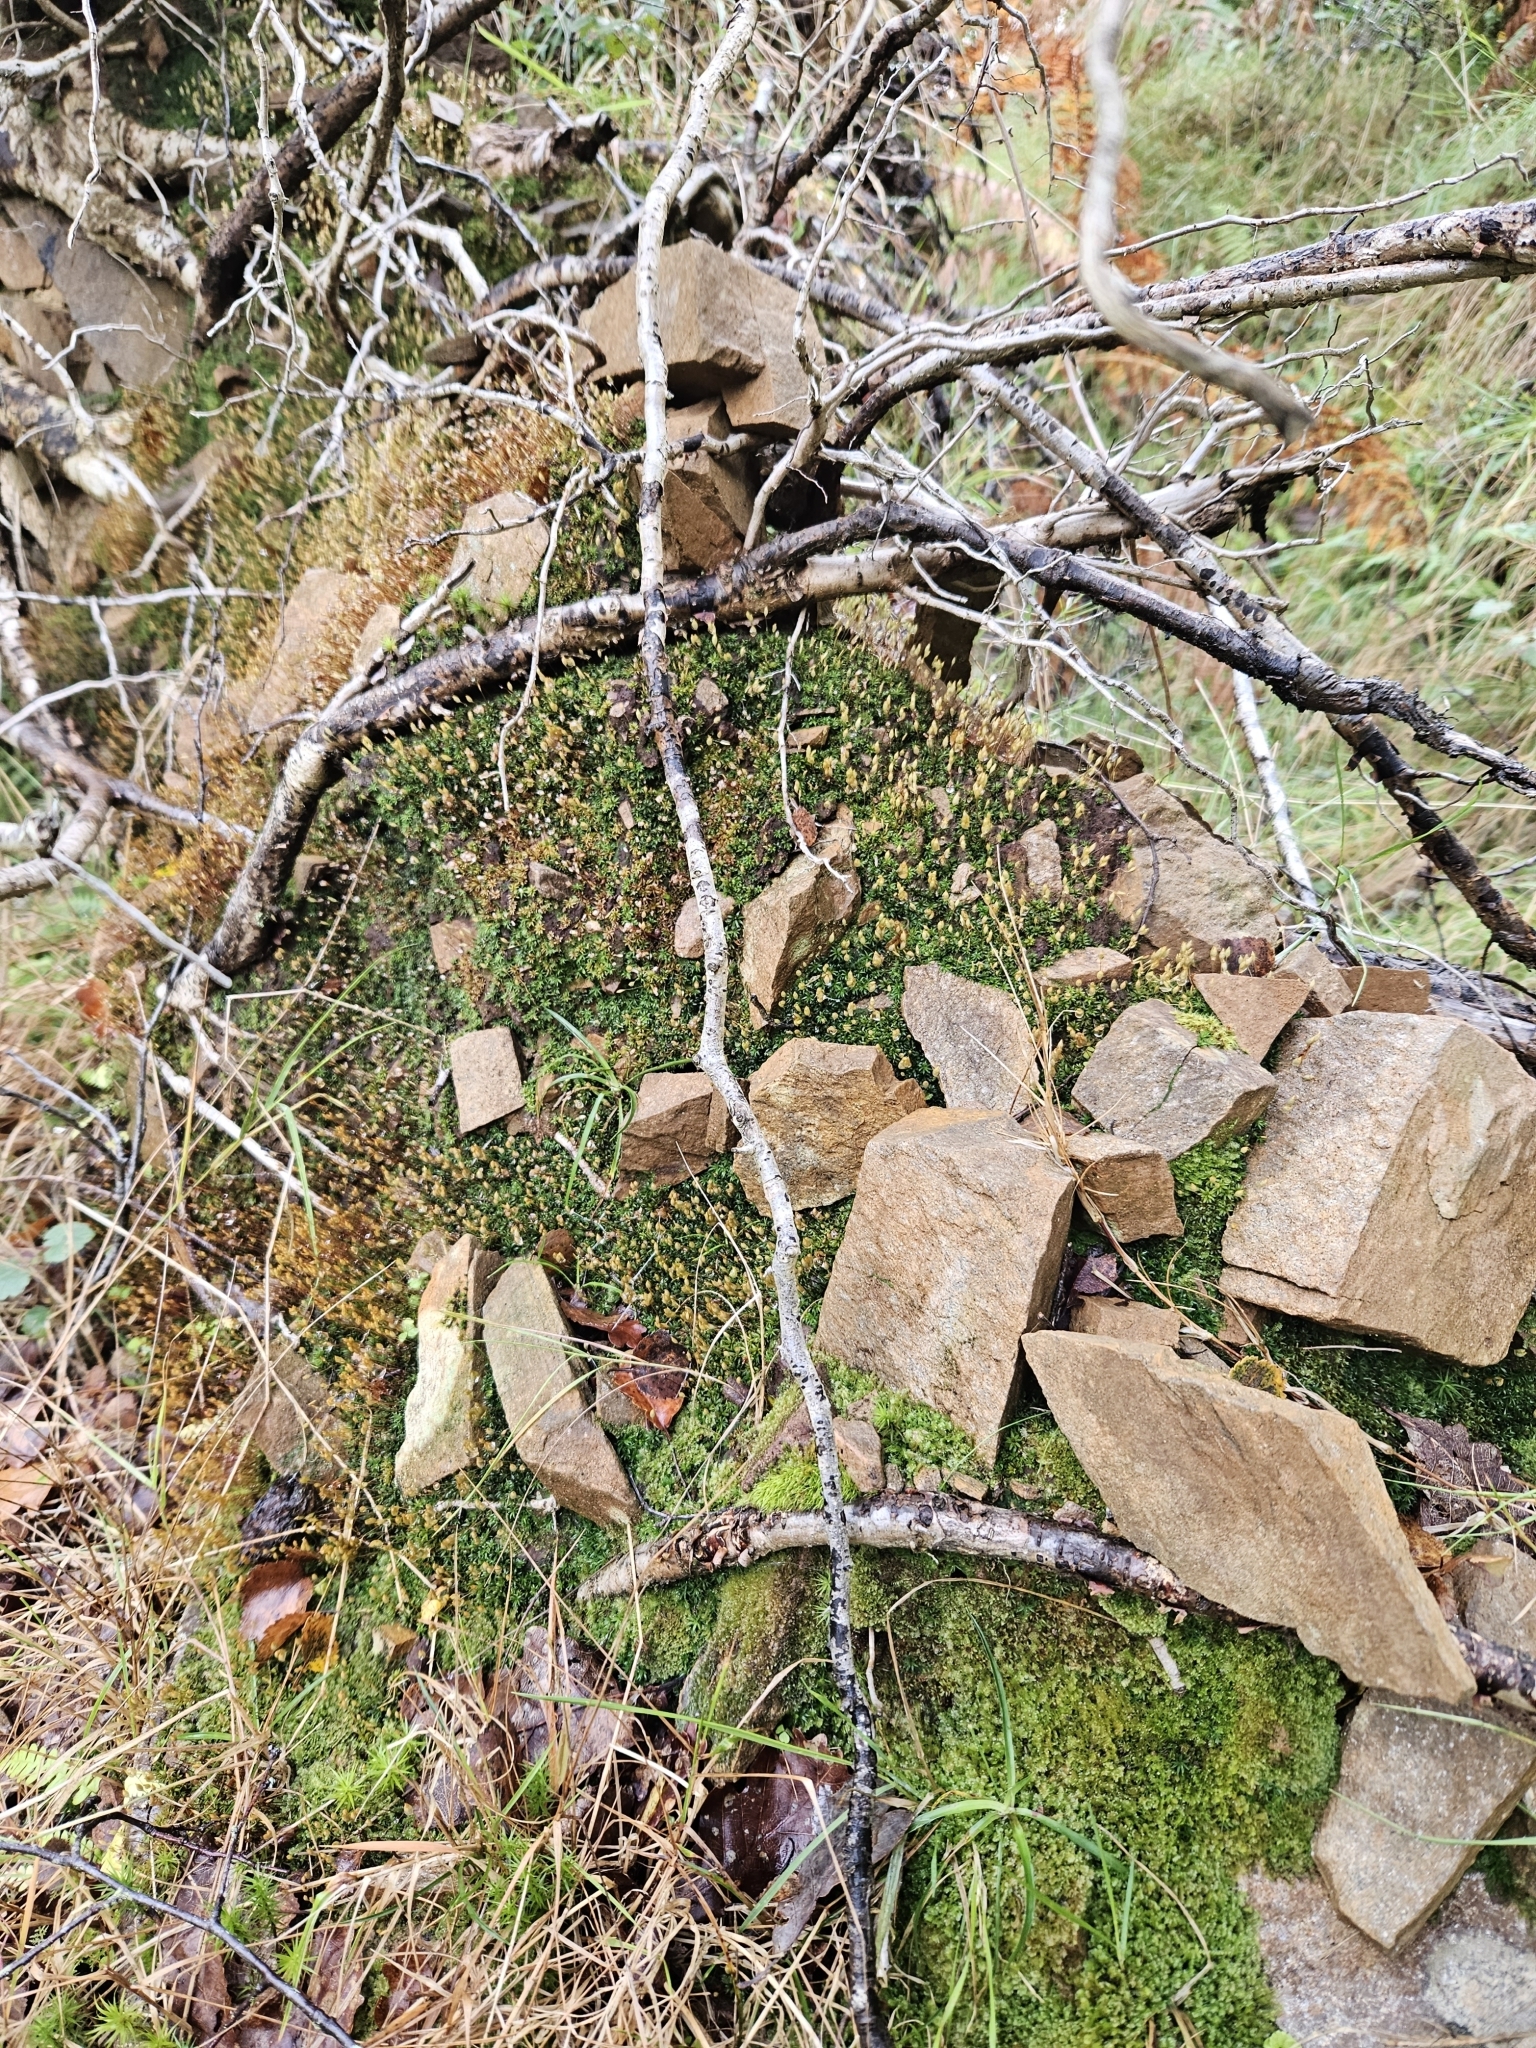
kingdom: Plantae
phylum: Bryophyta
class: Polytrichopsida
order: Polytrichales
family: Polytrichaceae
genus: Pogonatum
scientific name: Pogonatum aloides
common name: Aloe haircap
